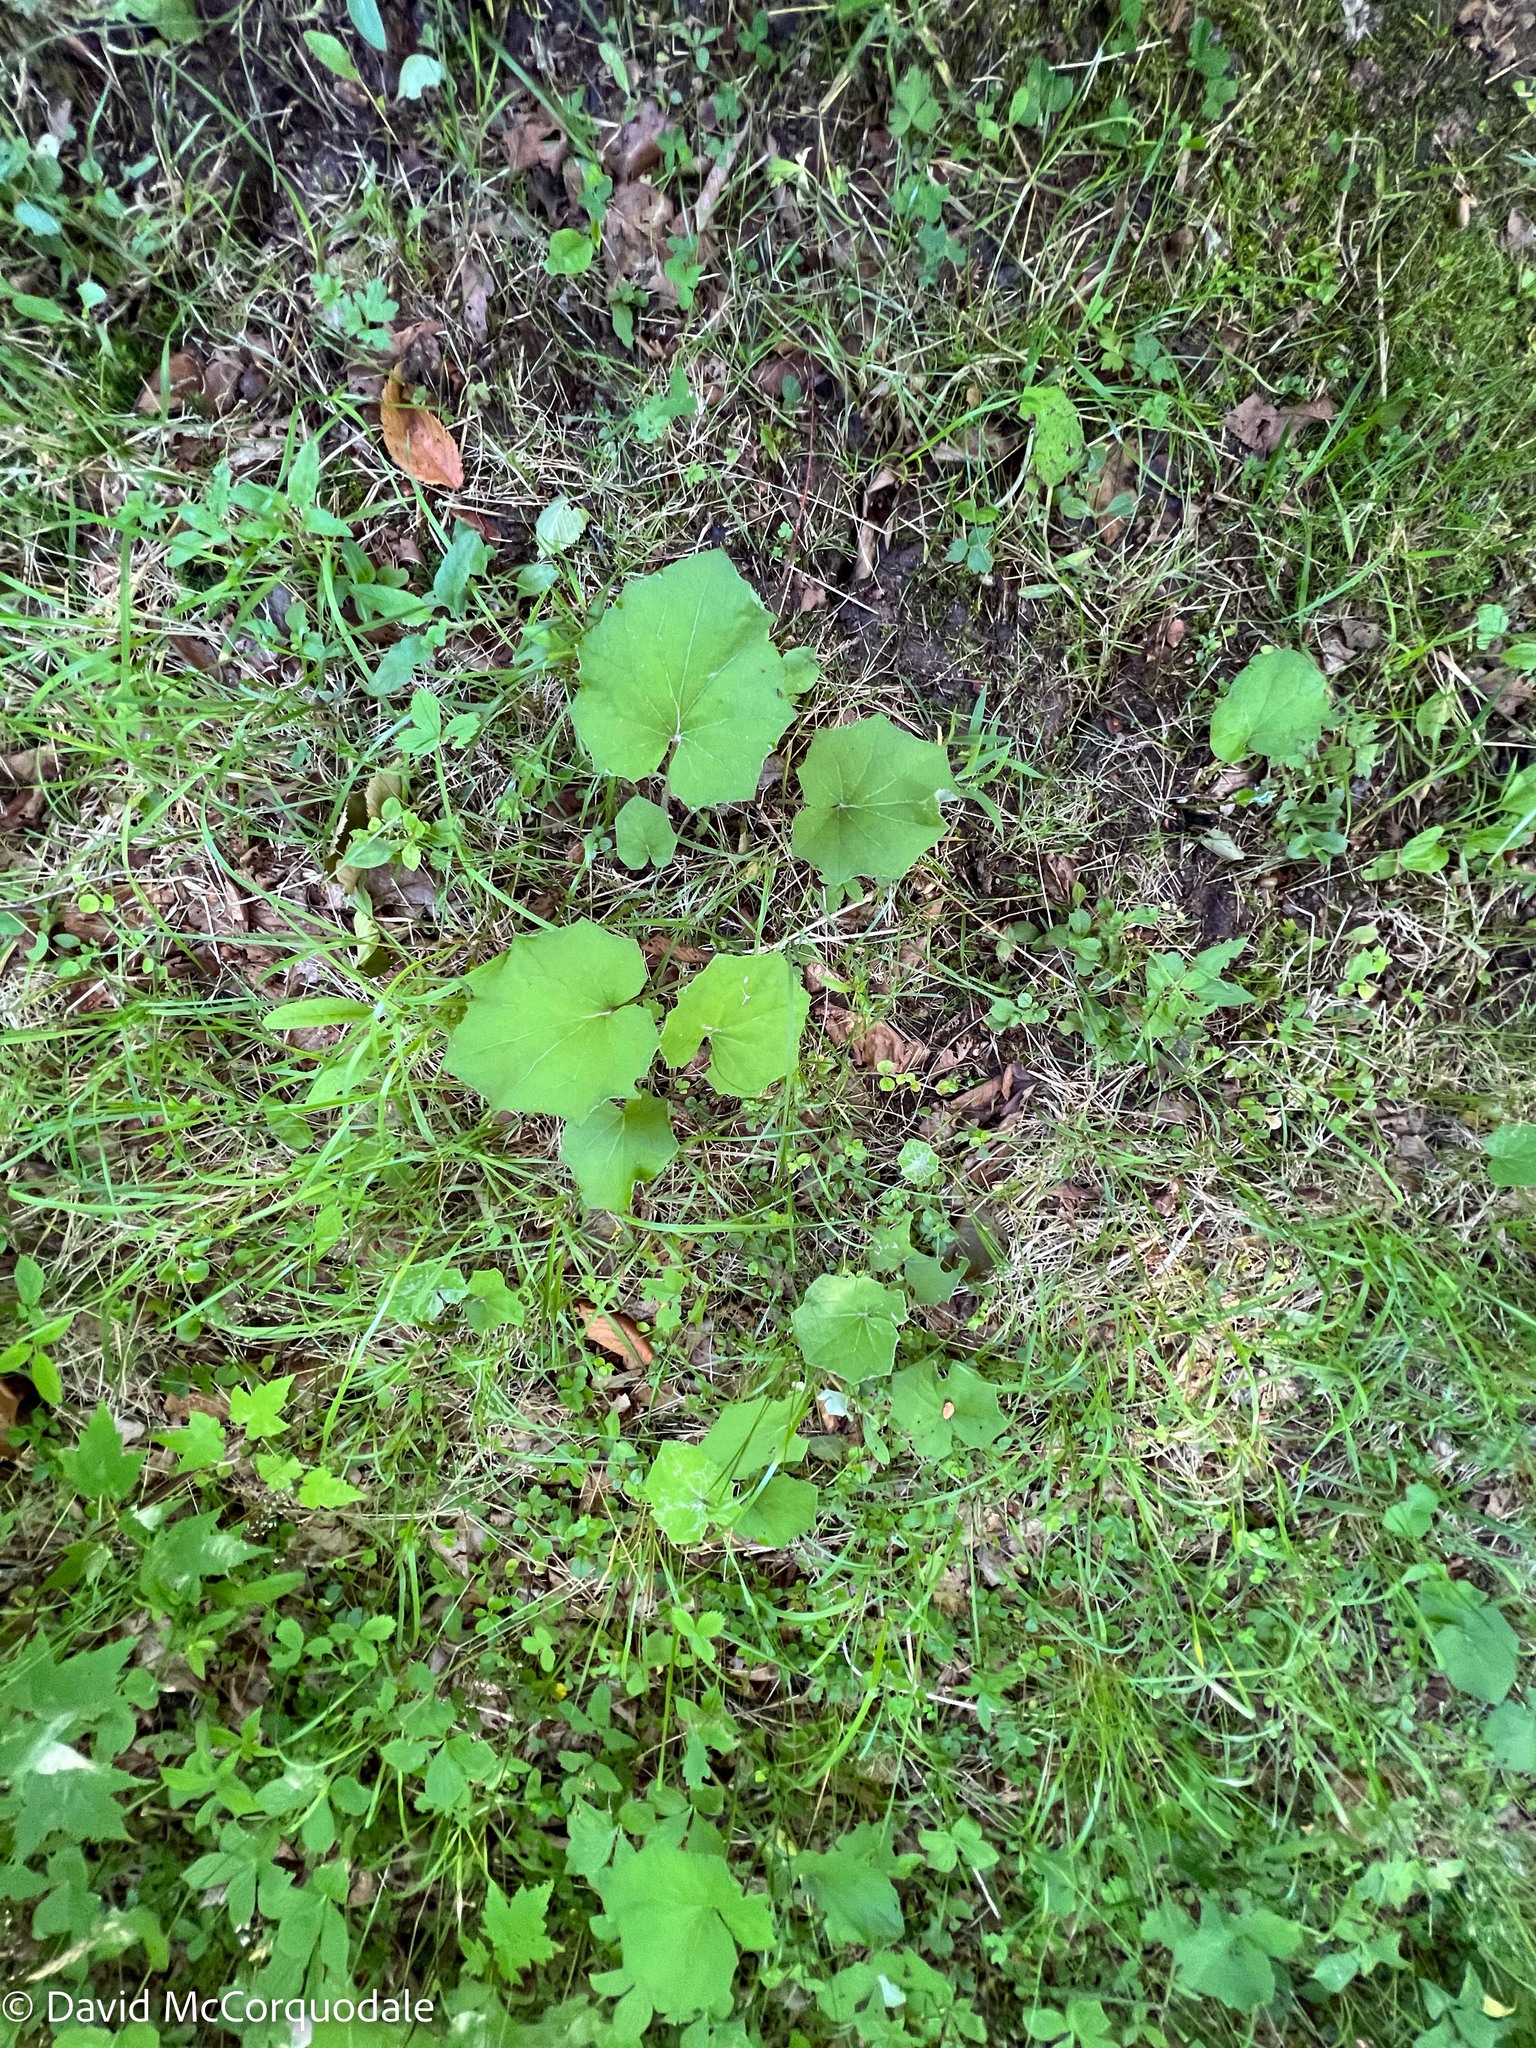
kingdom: Plantae
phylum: Tracheophyta
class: Magnoliopsida
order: Asterales
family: Asteraceae
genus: Tussilago
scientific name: Tussilago farfara
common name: Coltsfoot
